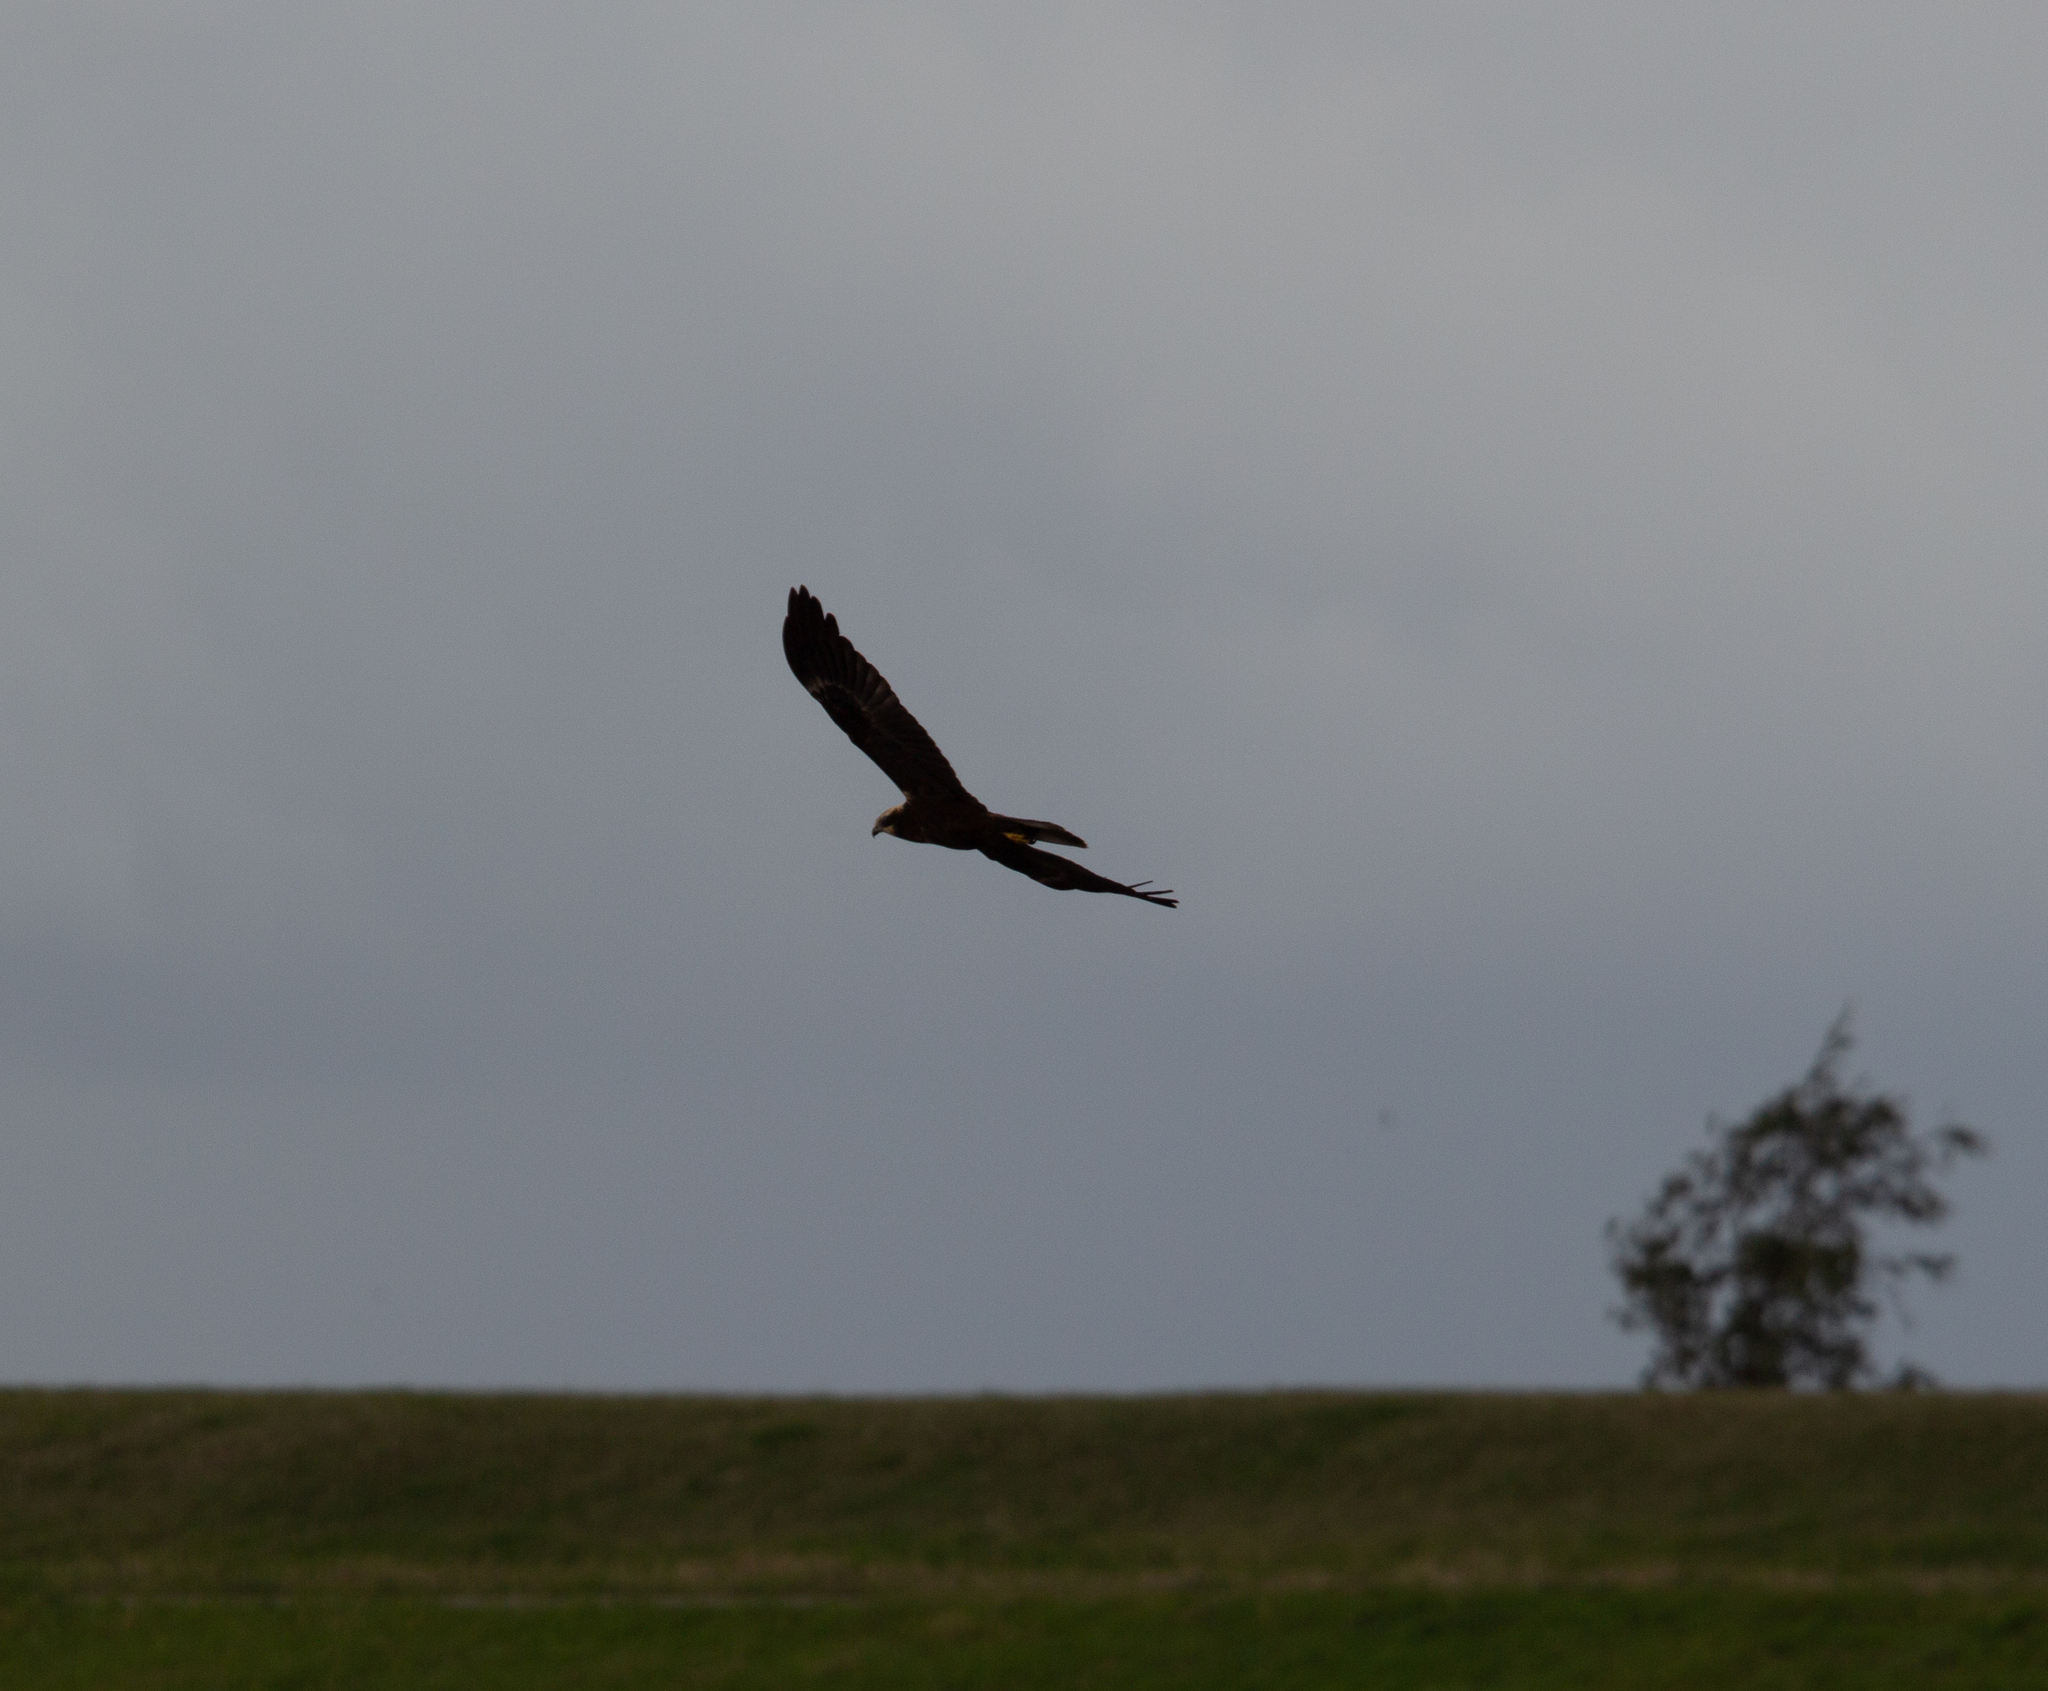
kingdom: Animalia
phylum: Chordata
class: Aves
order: Accipitriformes
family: Accipitridae
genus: Circus
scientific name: Circus aeruginosus
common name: Western marsh harrier
